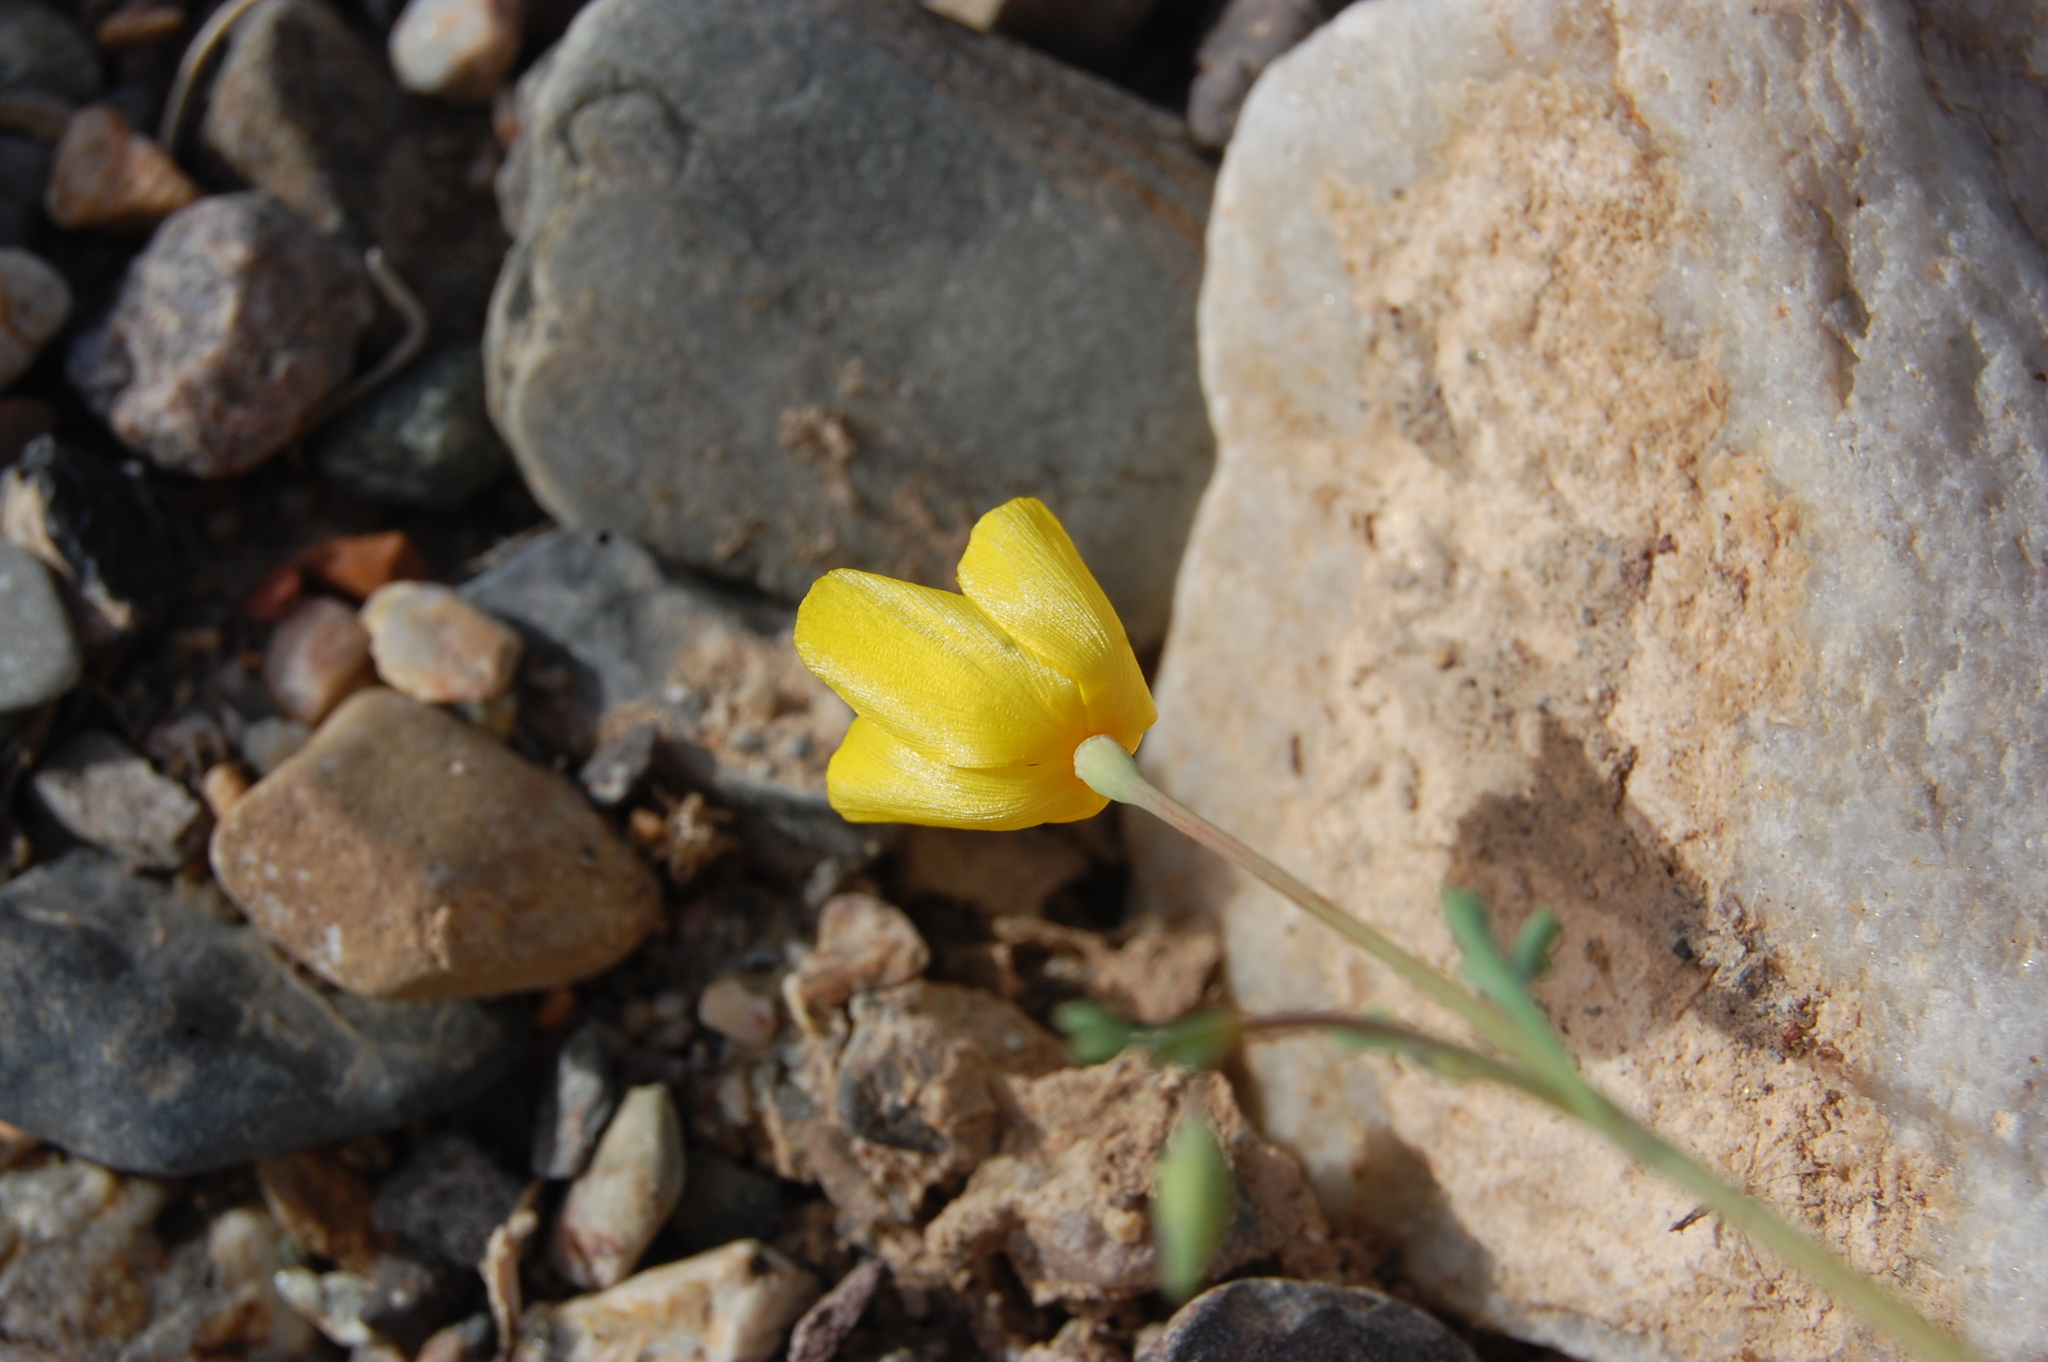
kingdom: Plantae
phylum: Tracheophyta
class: Magnoliopsida
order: Ranunculales
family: Papaveraceae
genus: Eschscholzia
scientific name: Eschscholzia minutiflora
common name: Small-flower california-poppy
